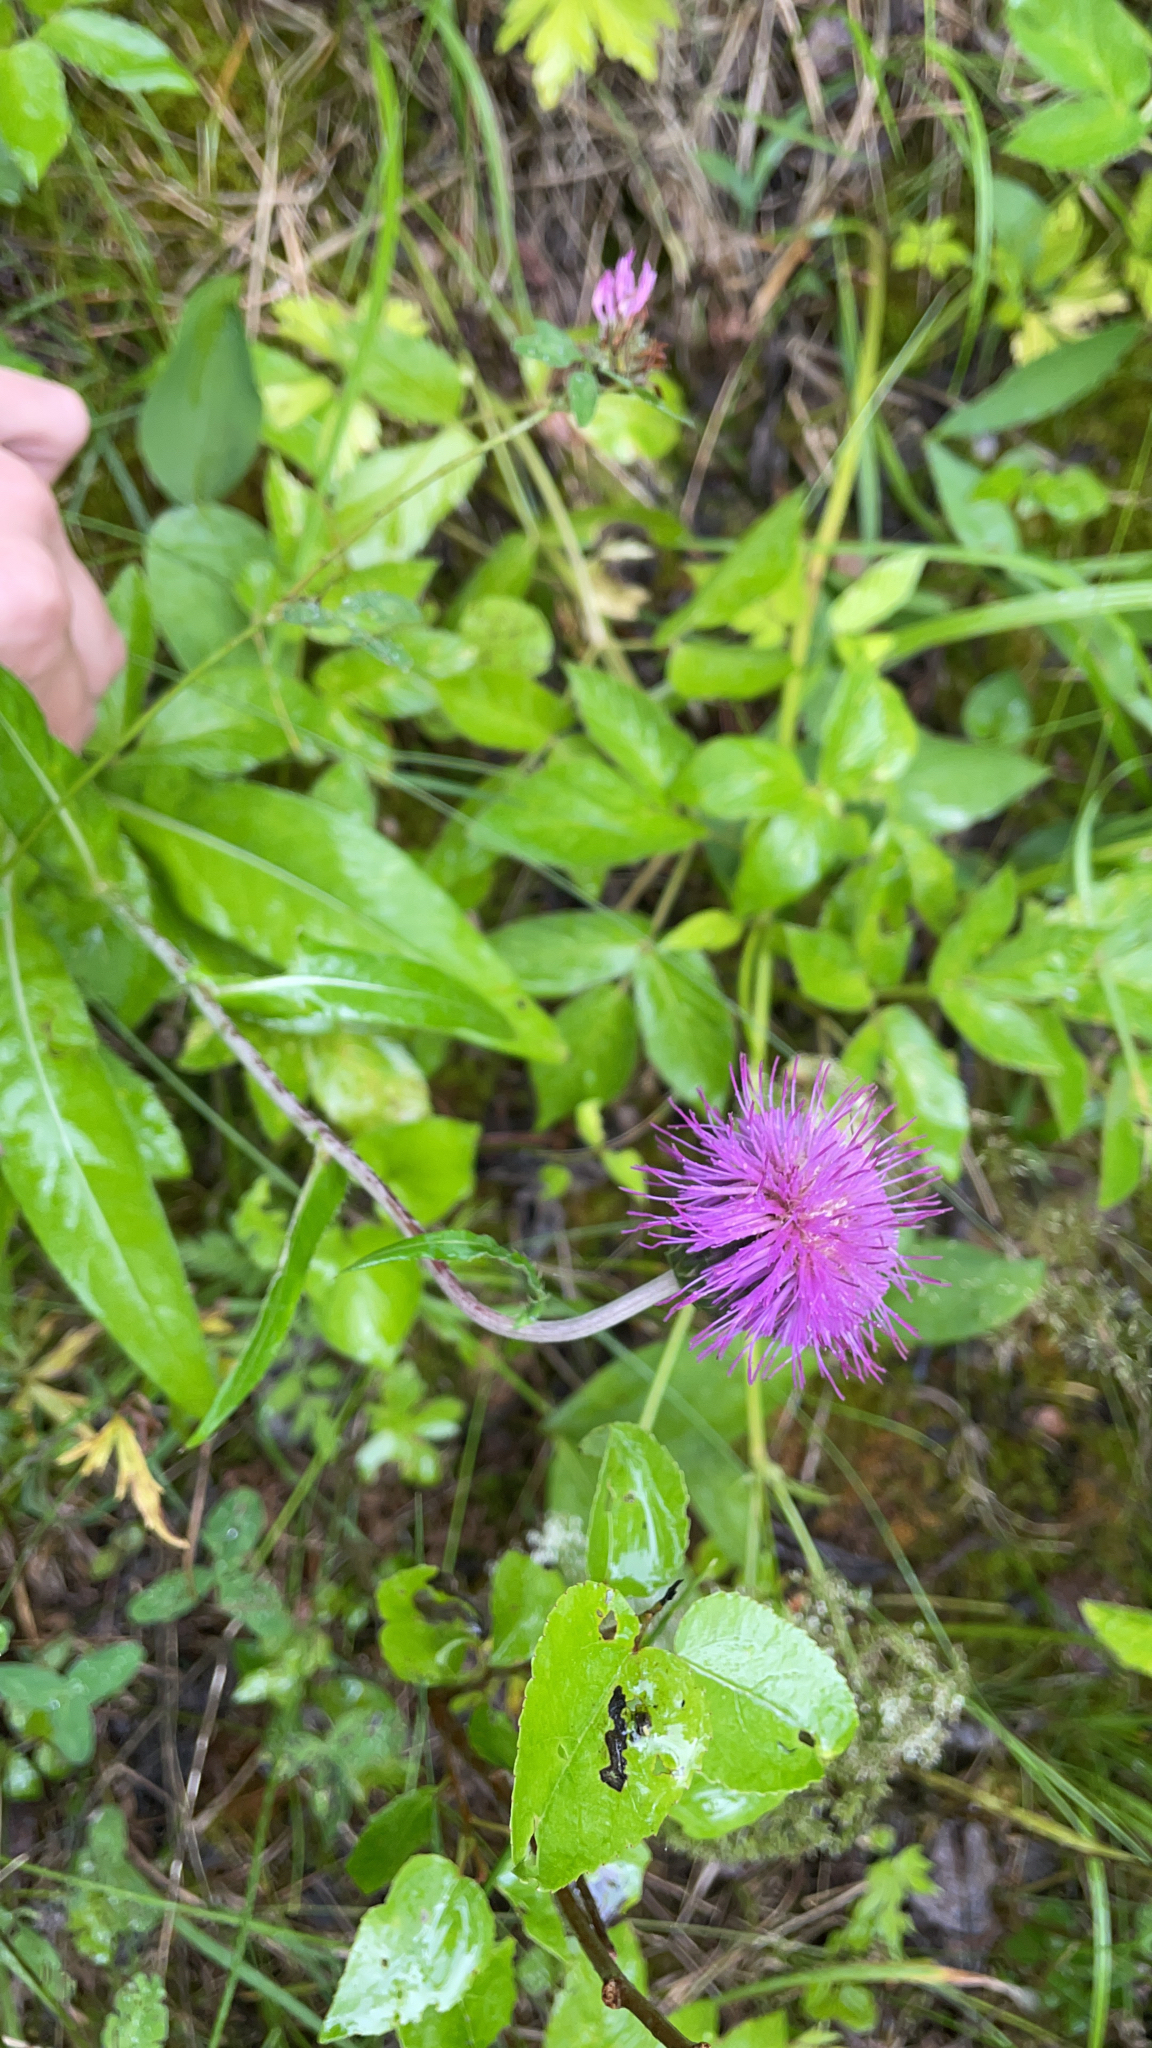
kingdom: Plantae
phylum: Tracheophyta
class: Magnoliopsida
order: Asterales
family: Asteraceae
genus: Cirsium
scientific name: Cirsium heterophyllum
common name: Melancholy thistle
